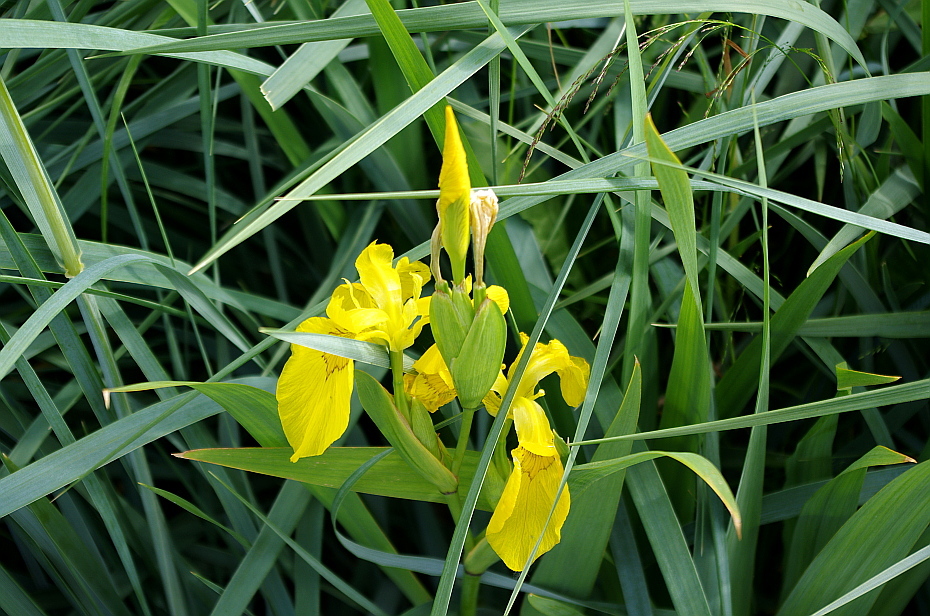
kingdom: Plantae
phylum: Tracheophyta
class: Liliopsida
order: Asparagales
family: Iridaceae
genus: Iris
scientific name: Iris pseudacorus
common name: Yellow flag
